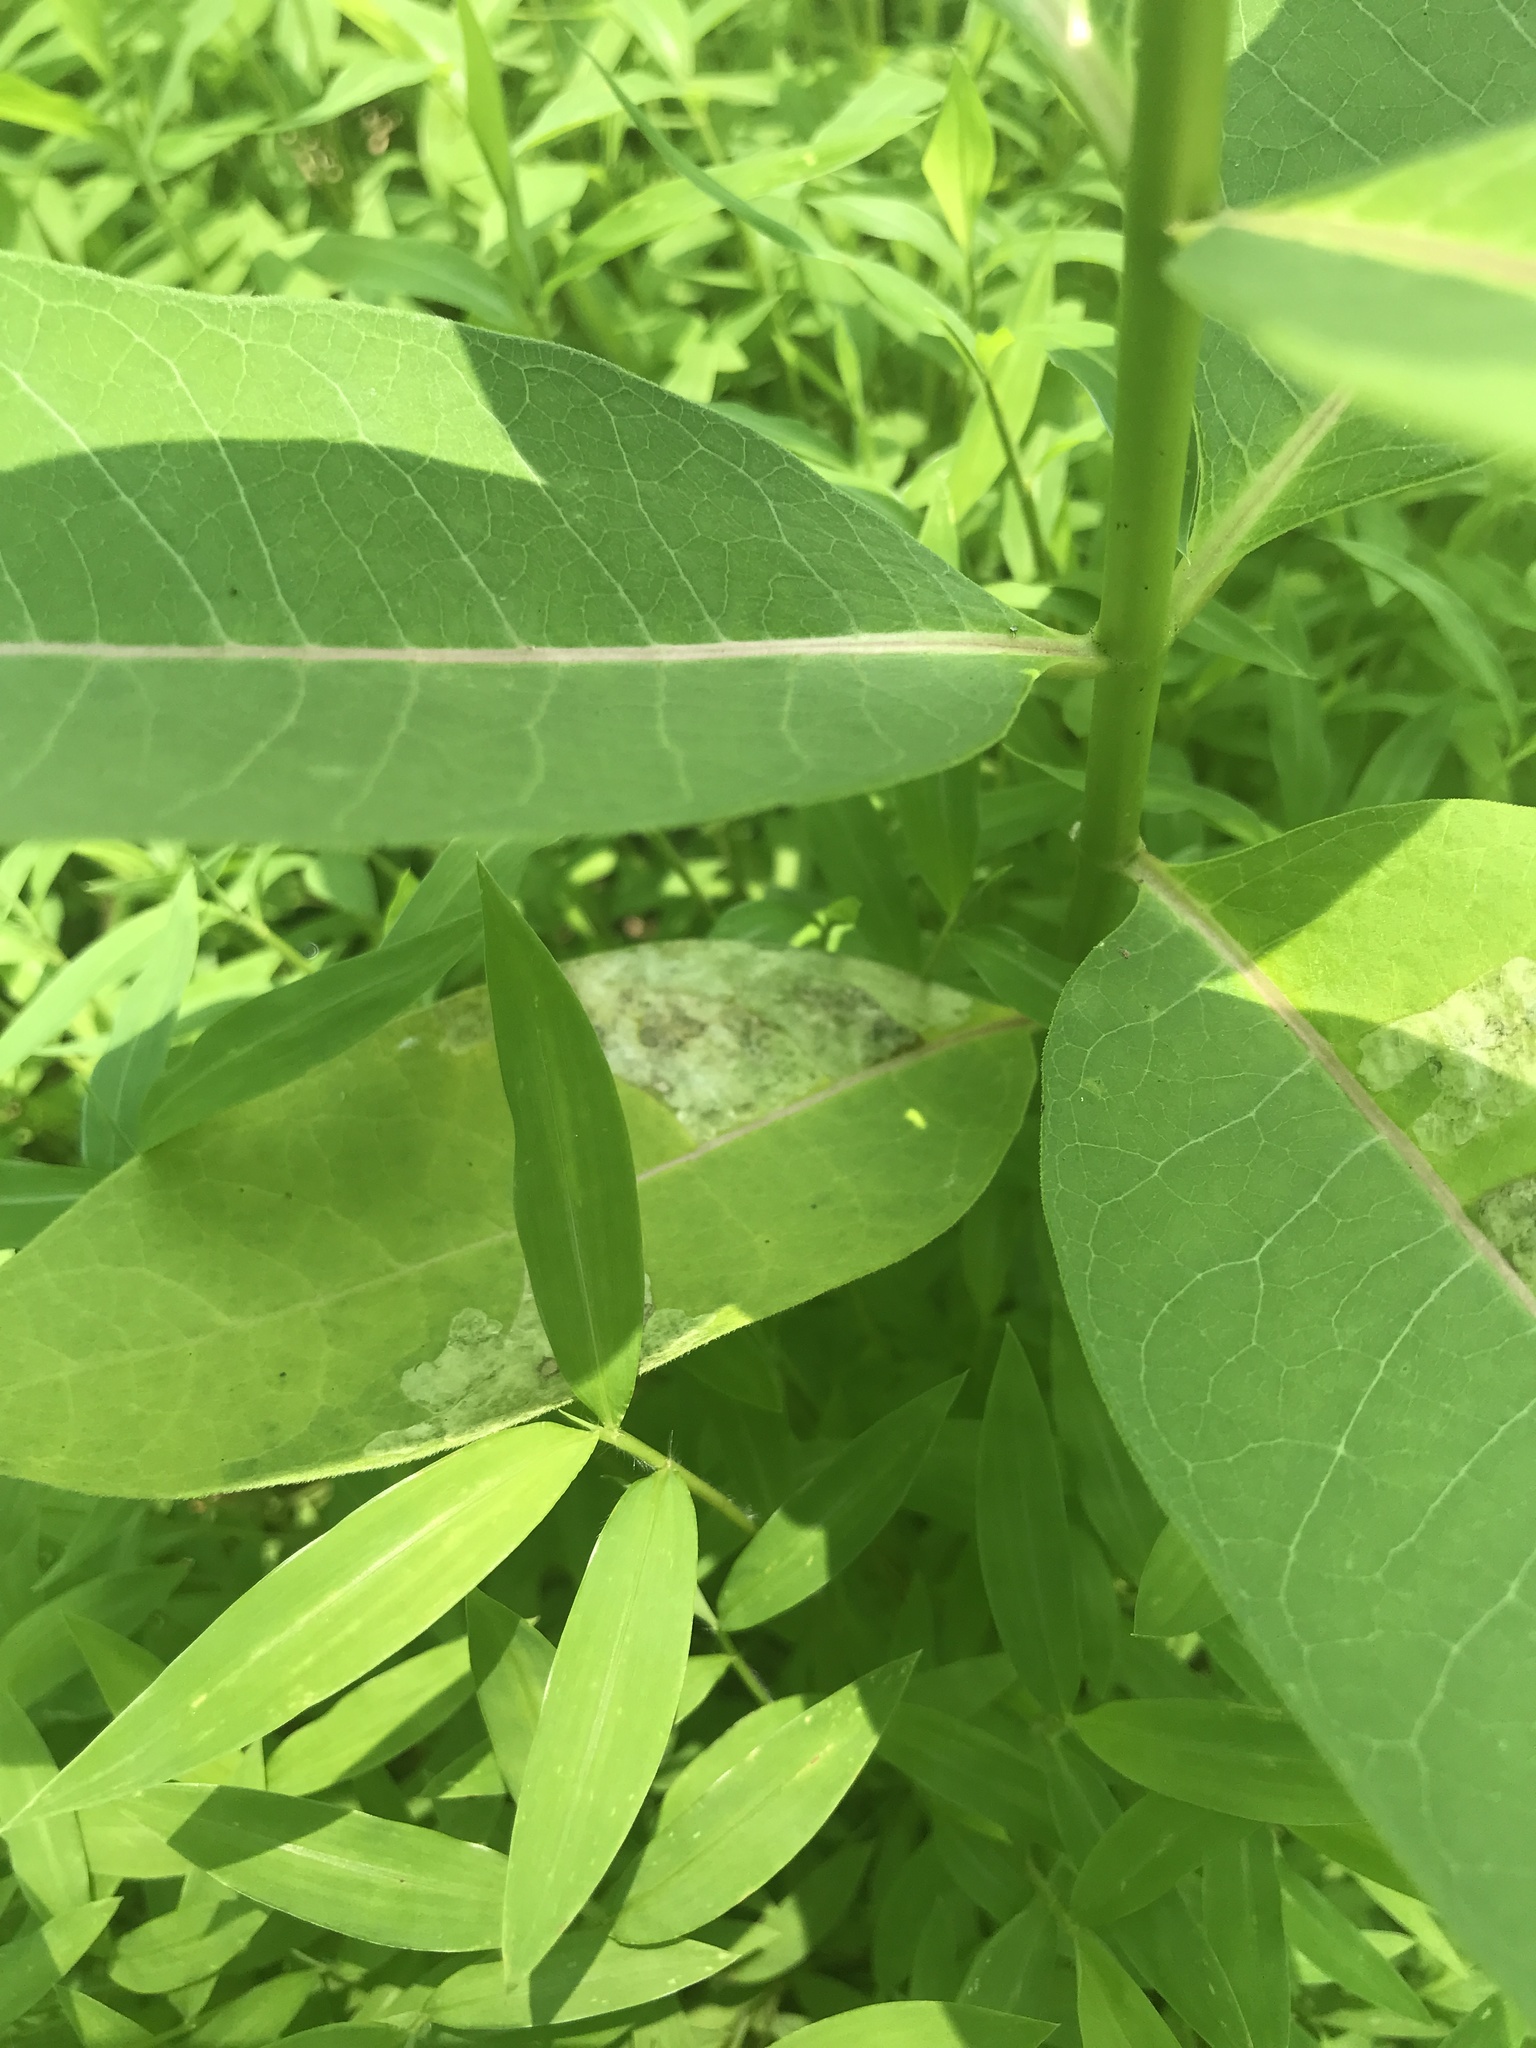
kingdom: Animalia
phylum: Arthropoda
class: Insecta
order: Diptera
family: Agromyzidae
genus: Liriomyza
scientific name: Liriomyza asclepiadis
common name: Milkweed leaf-miner fly
